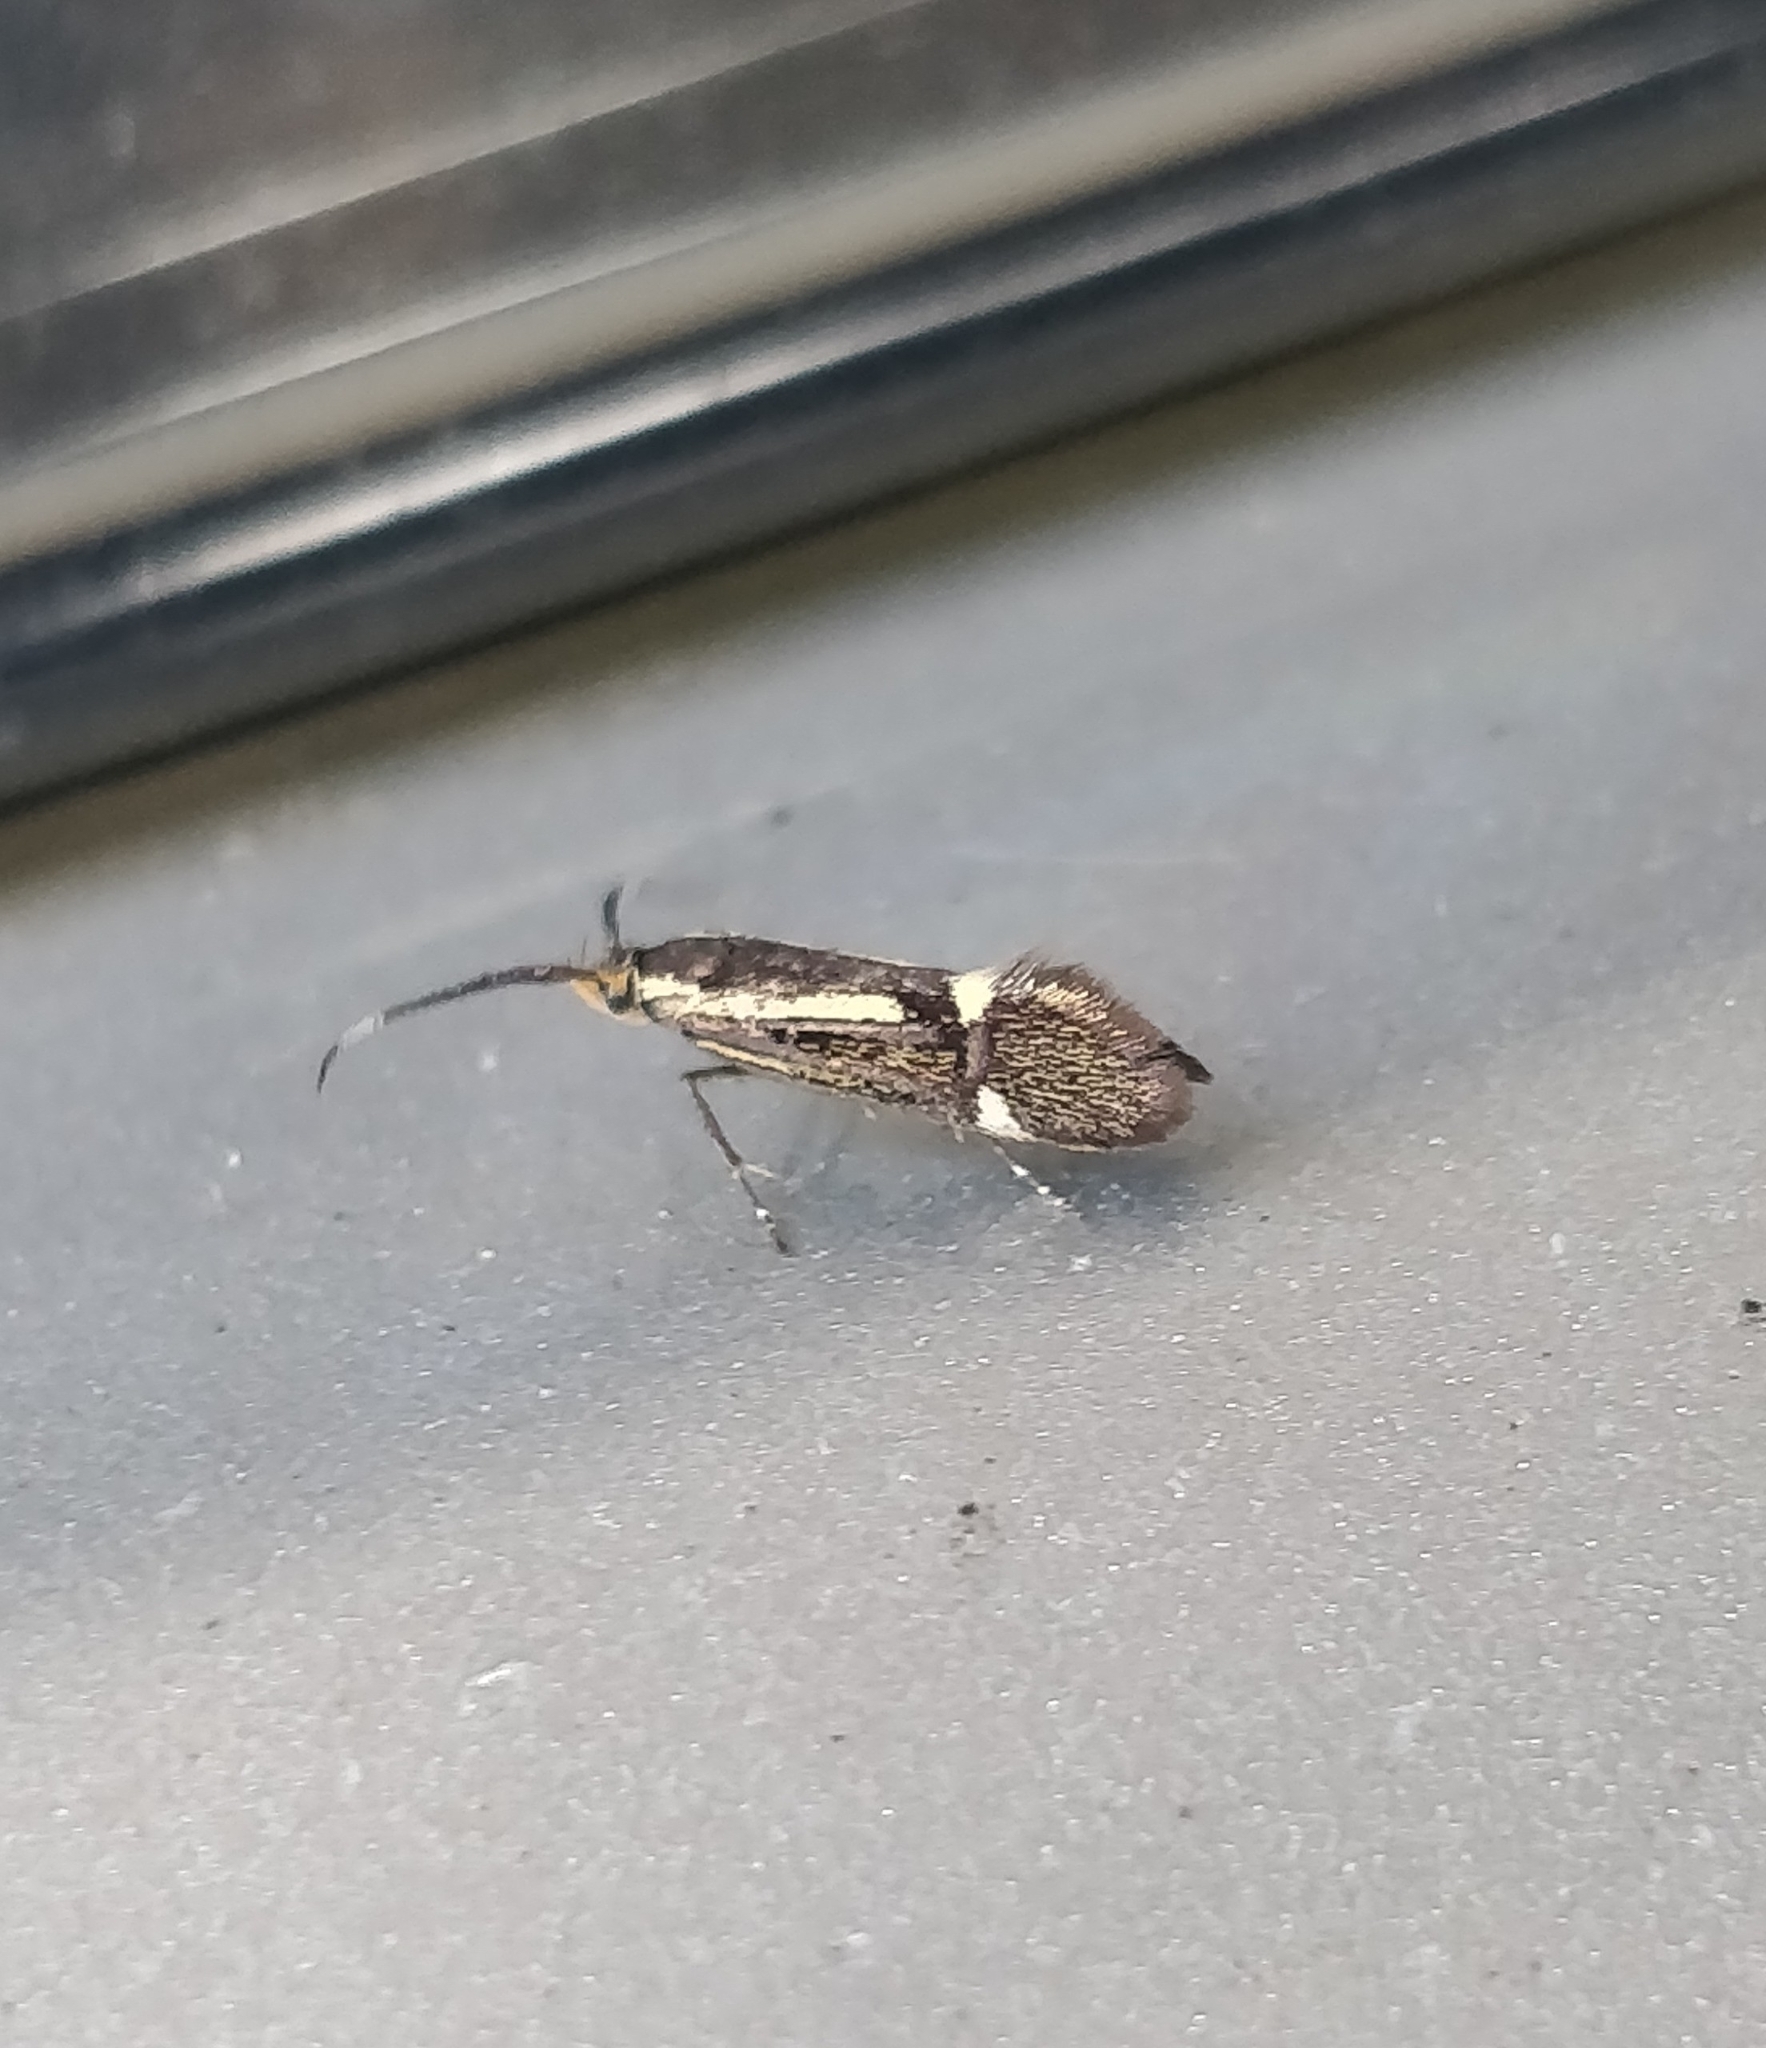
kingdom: Animalia
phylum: Arthropoda
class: Insecta
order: Lepidoptera
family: Oecophoridae
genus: Dafa
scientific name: Dafa Esperia sulphurella
